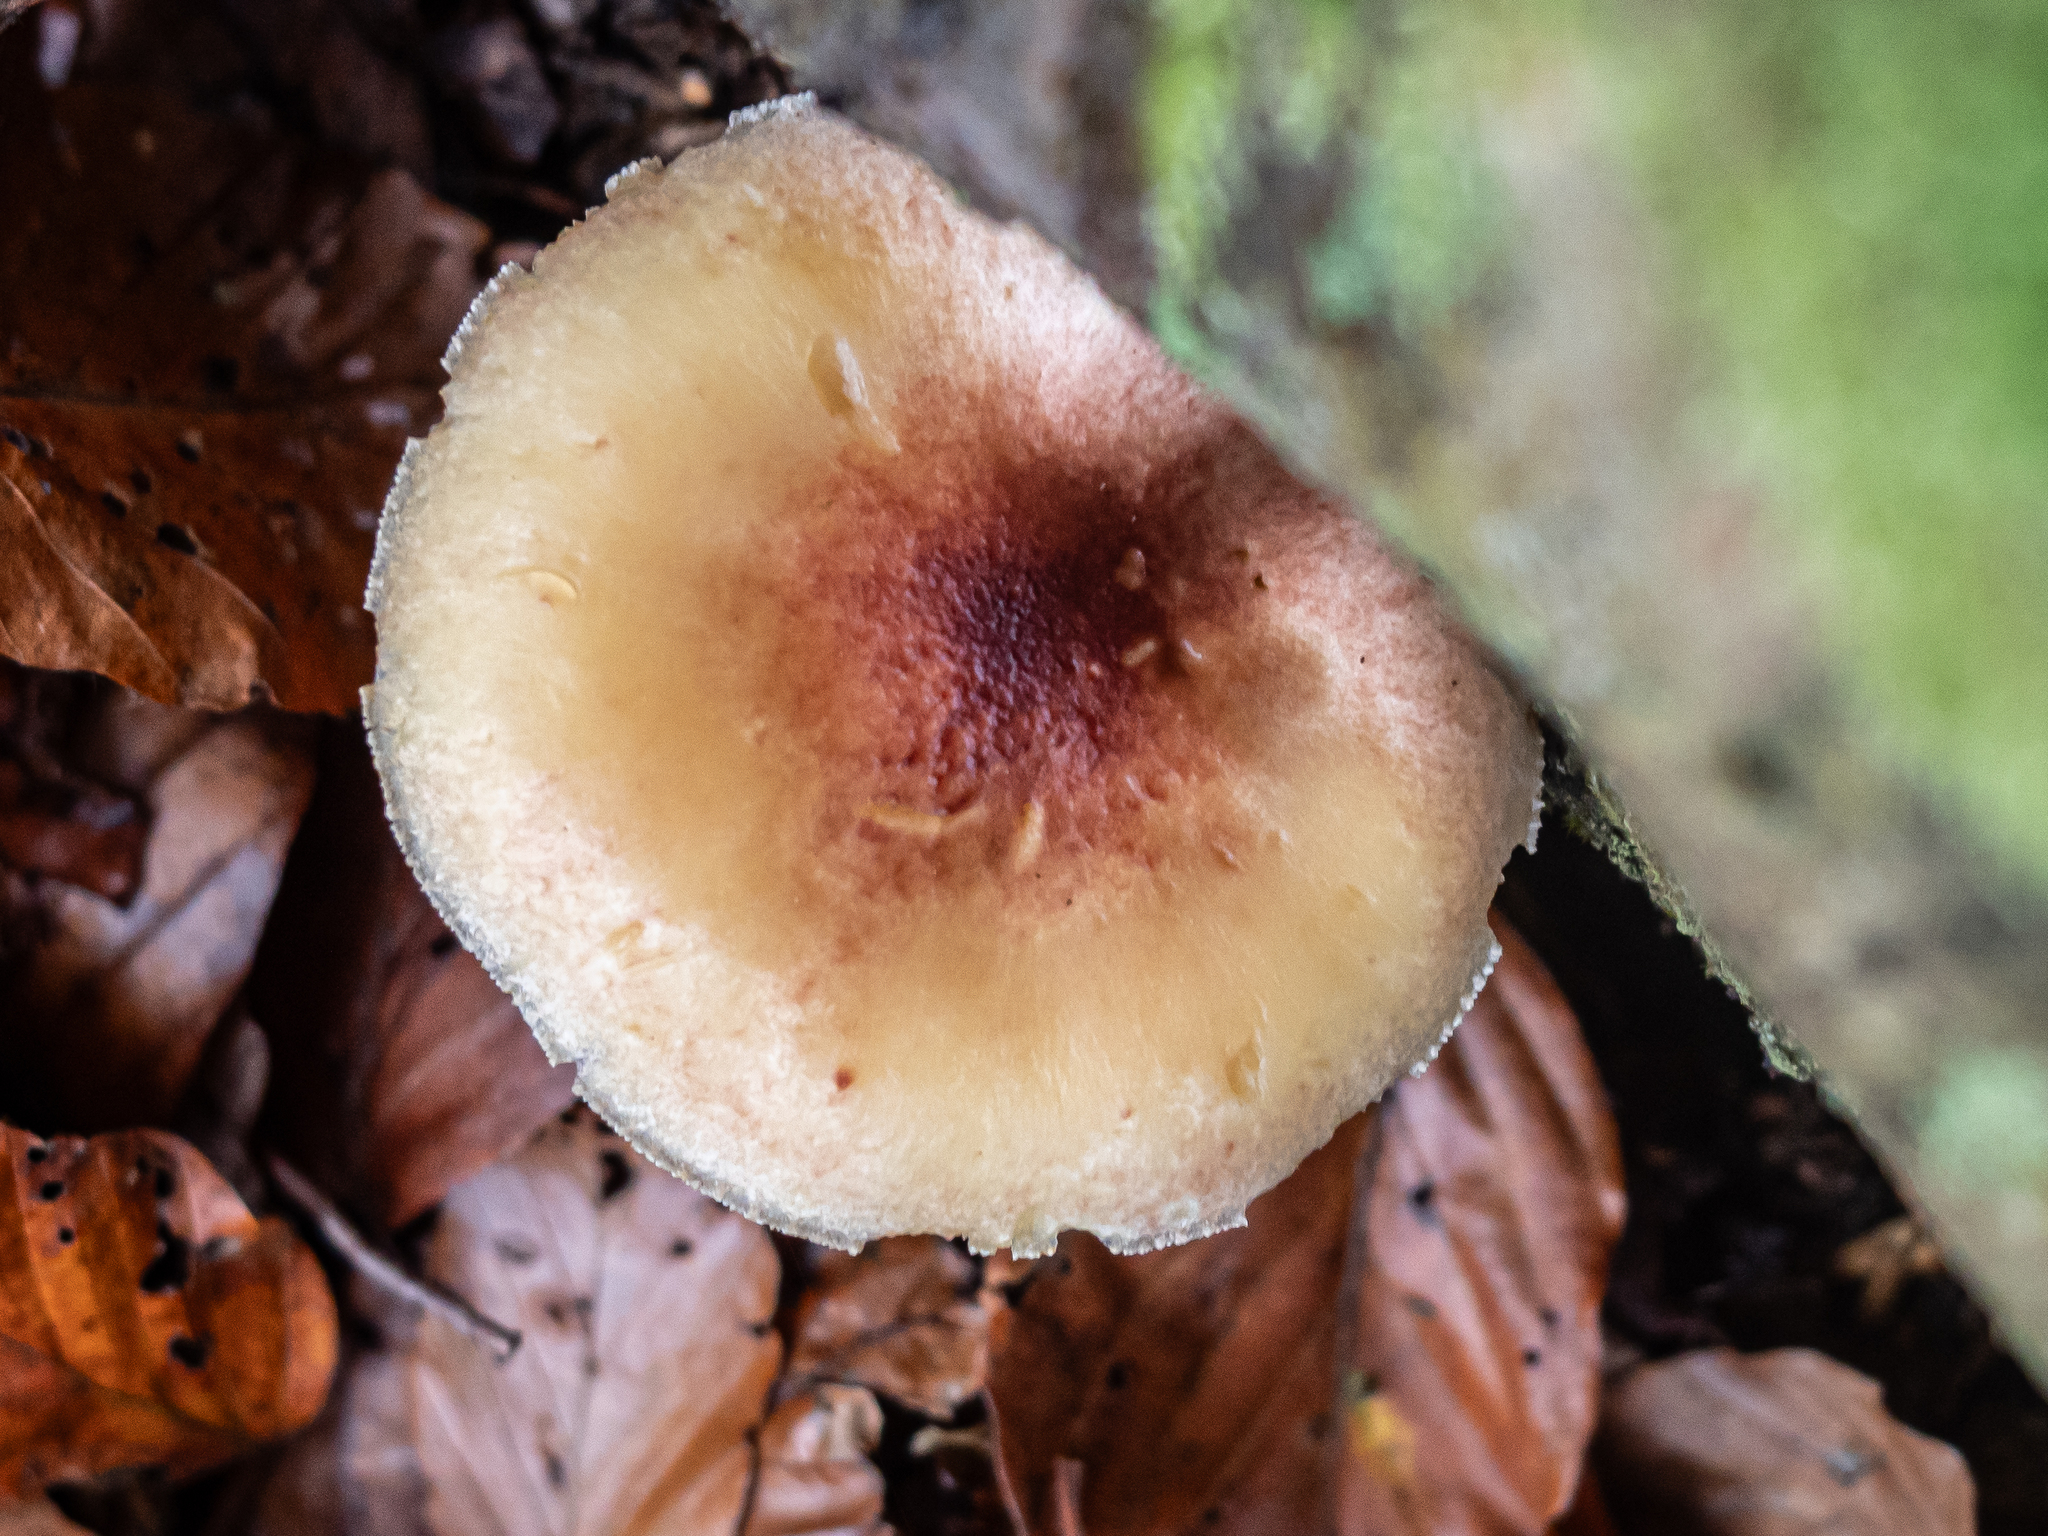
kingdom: Fungi
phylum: Basidiomycota
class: Agaricomycetes
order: Agaricales
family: Tricholomataceae
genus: Tricholomopsis
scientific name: Tricholomopsis rutilans
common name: Plums and custard
